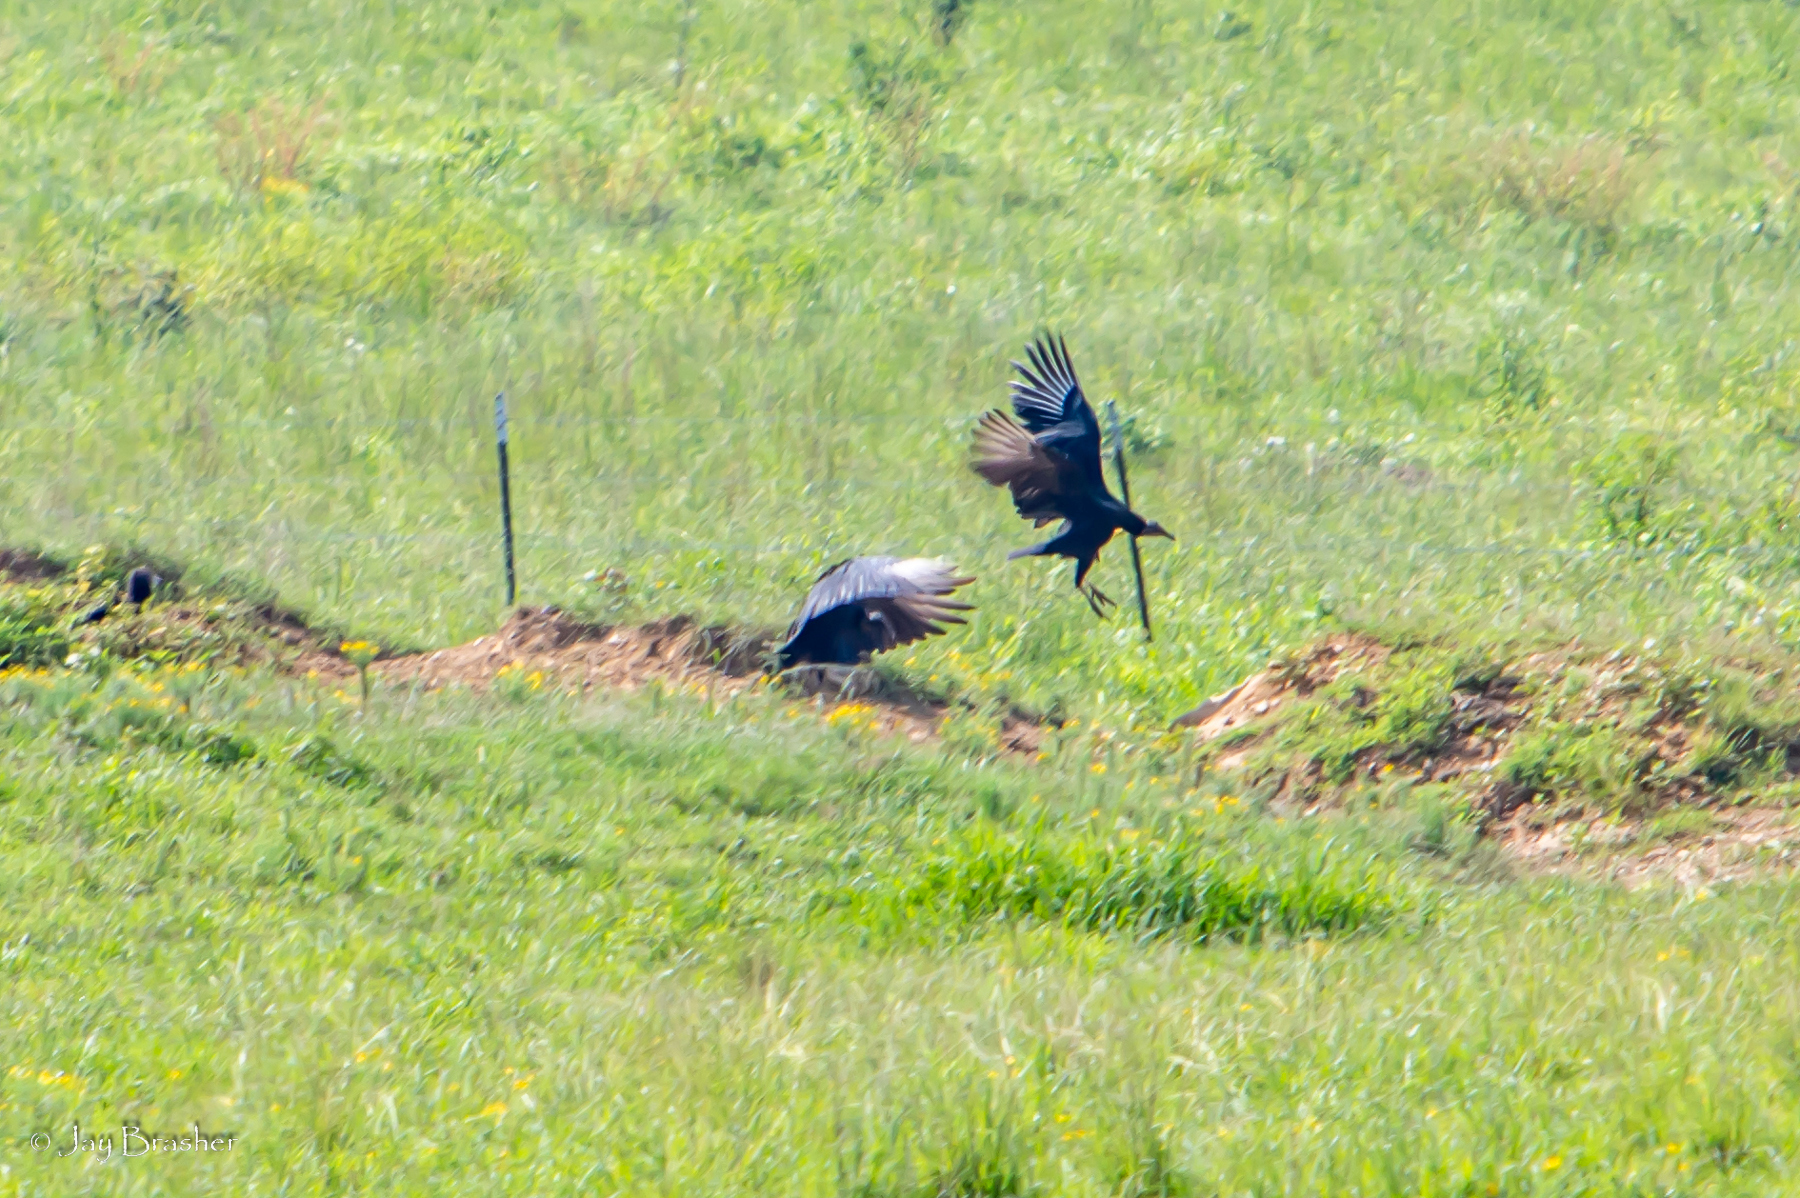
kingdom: Animalia
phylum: Chordata
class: Aves
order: Accipitriformes
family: Cathartidae
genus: Coragyps
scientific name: Coragyps atratus
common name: Black vulture
